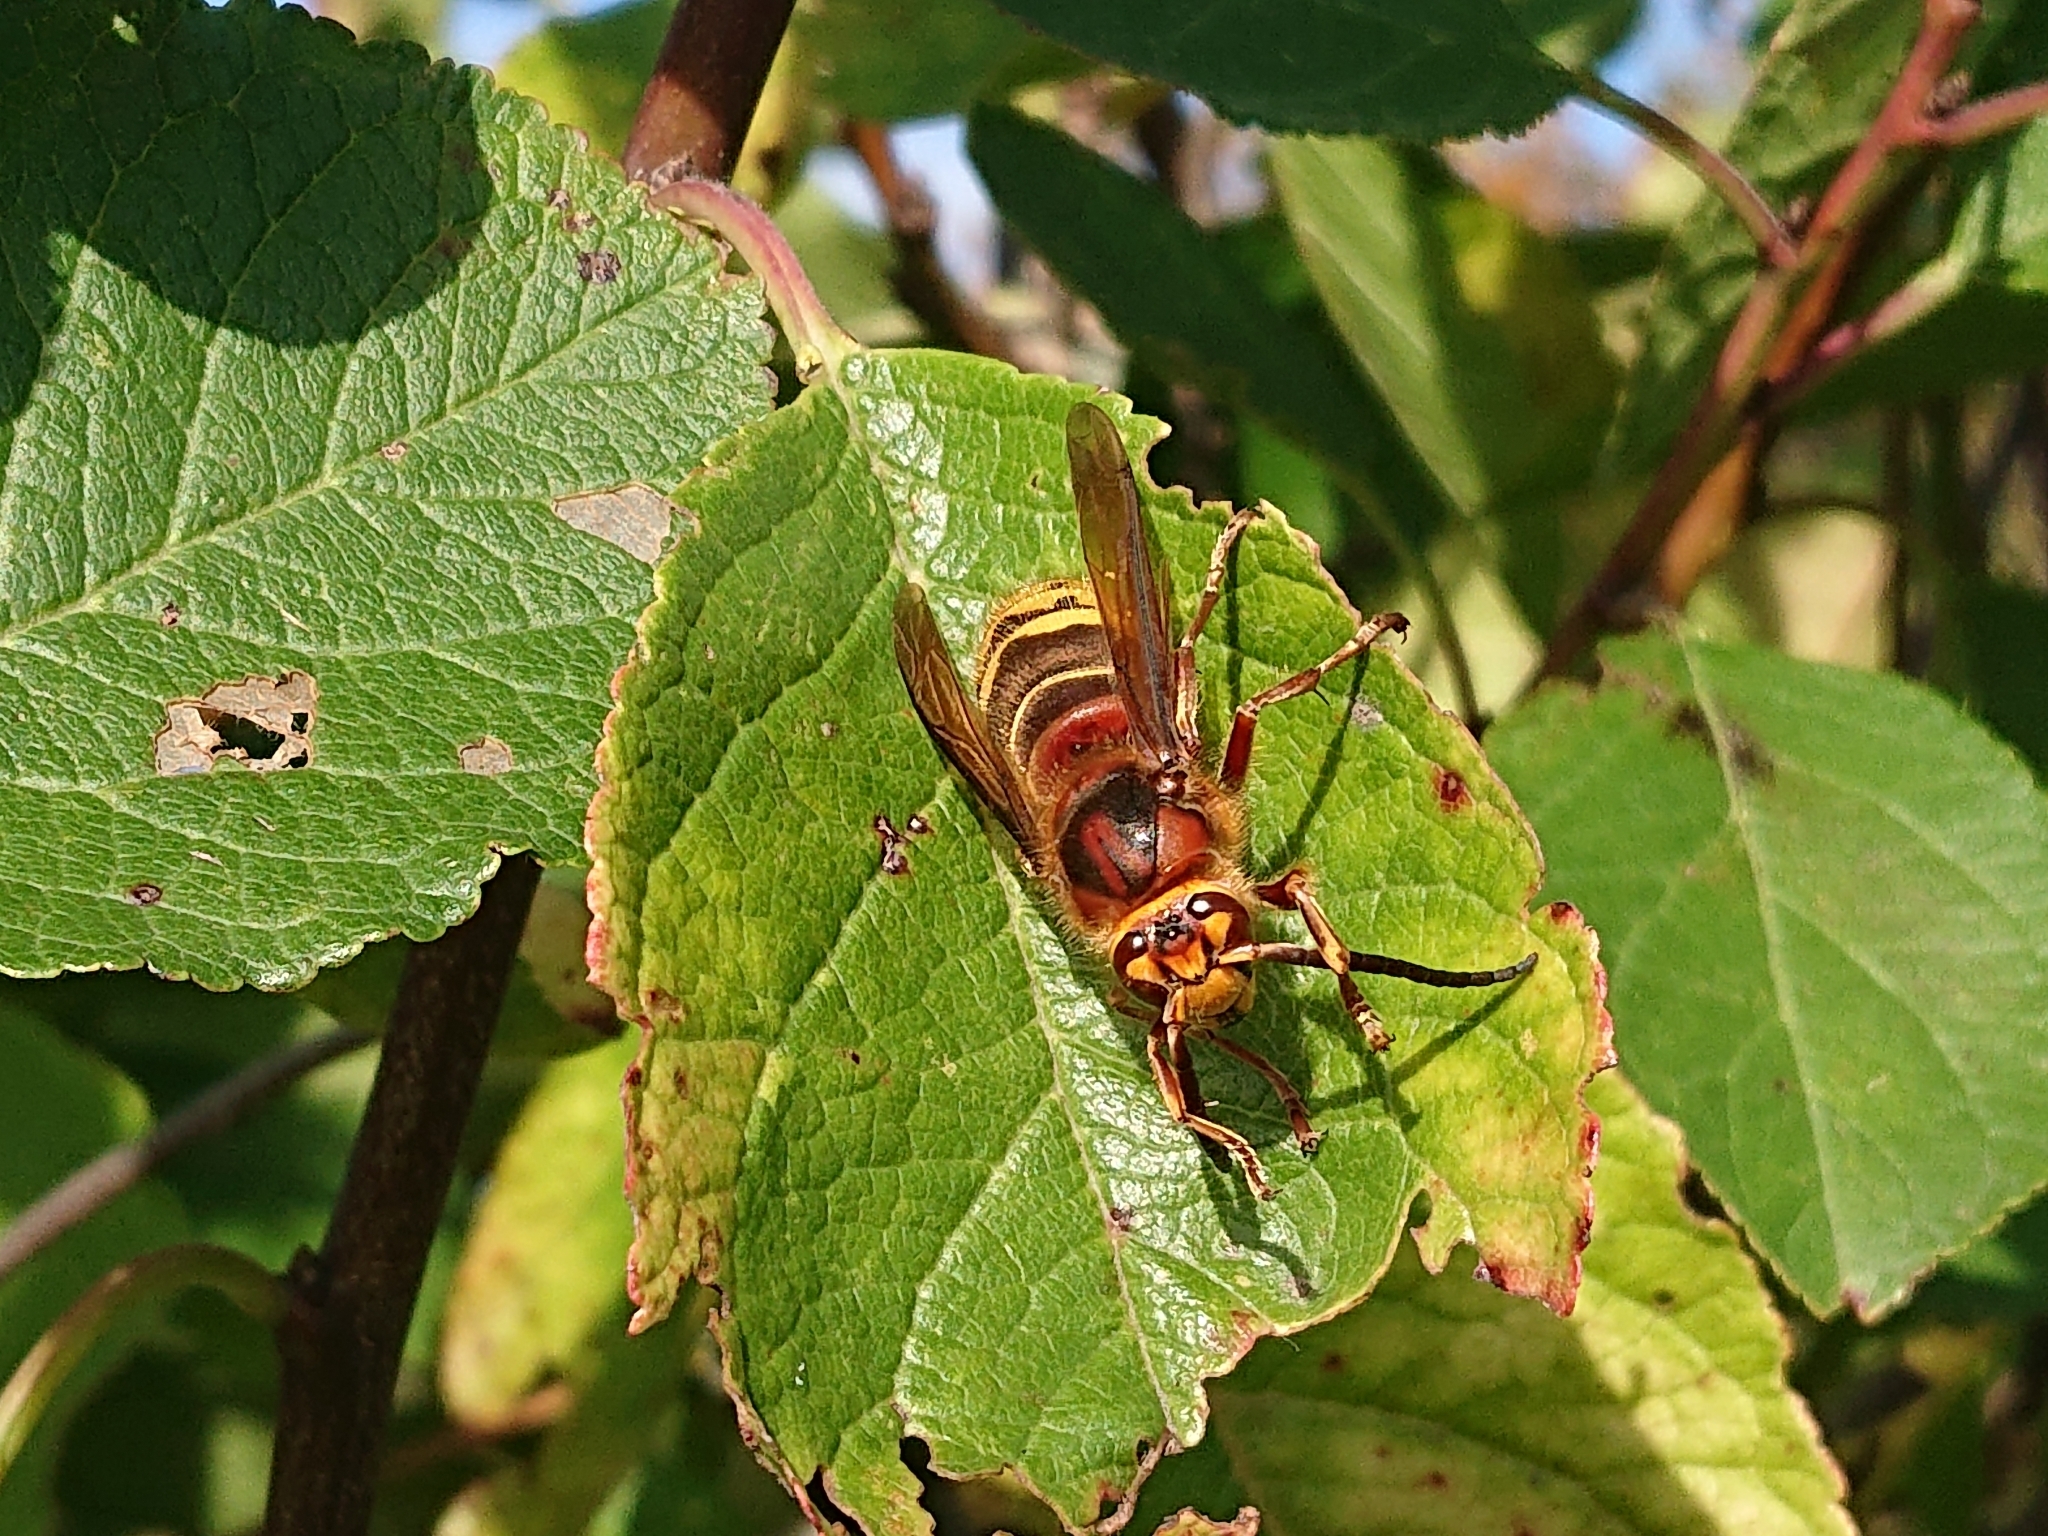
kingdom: Animalia
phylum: Arthropoda
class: Insecta
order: Hymenoptera
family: Vespidae
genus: Vespa
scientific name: Vespa crabro
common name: Hornet
